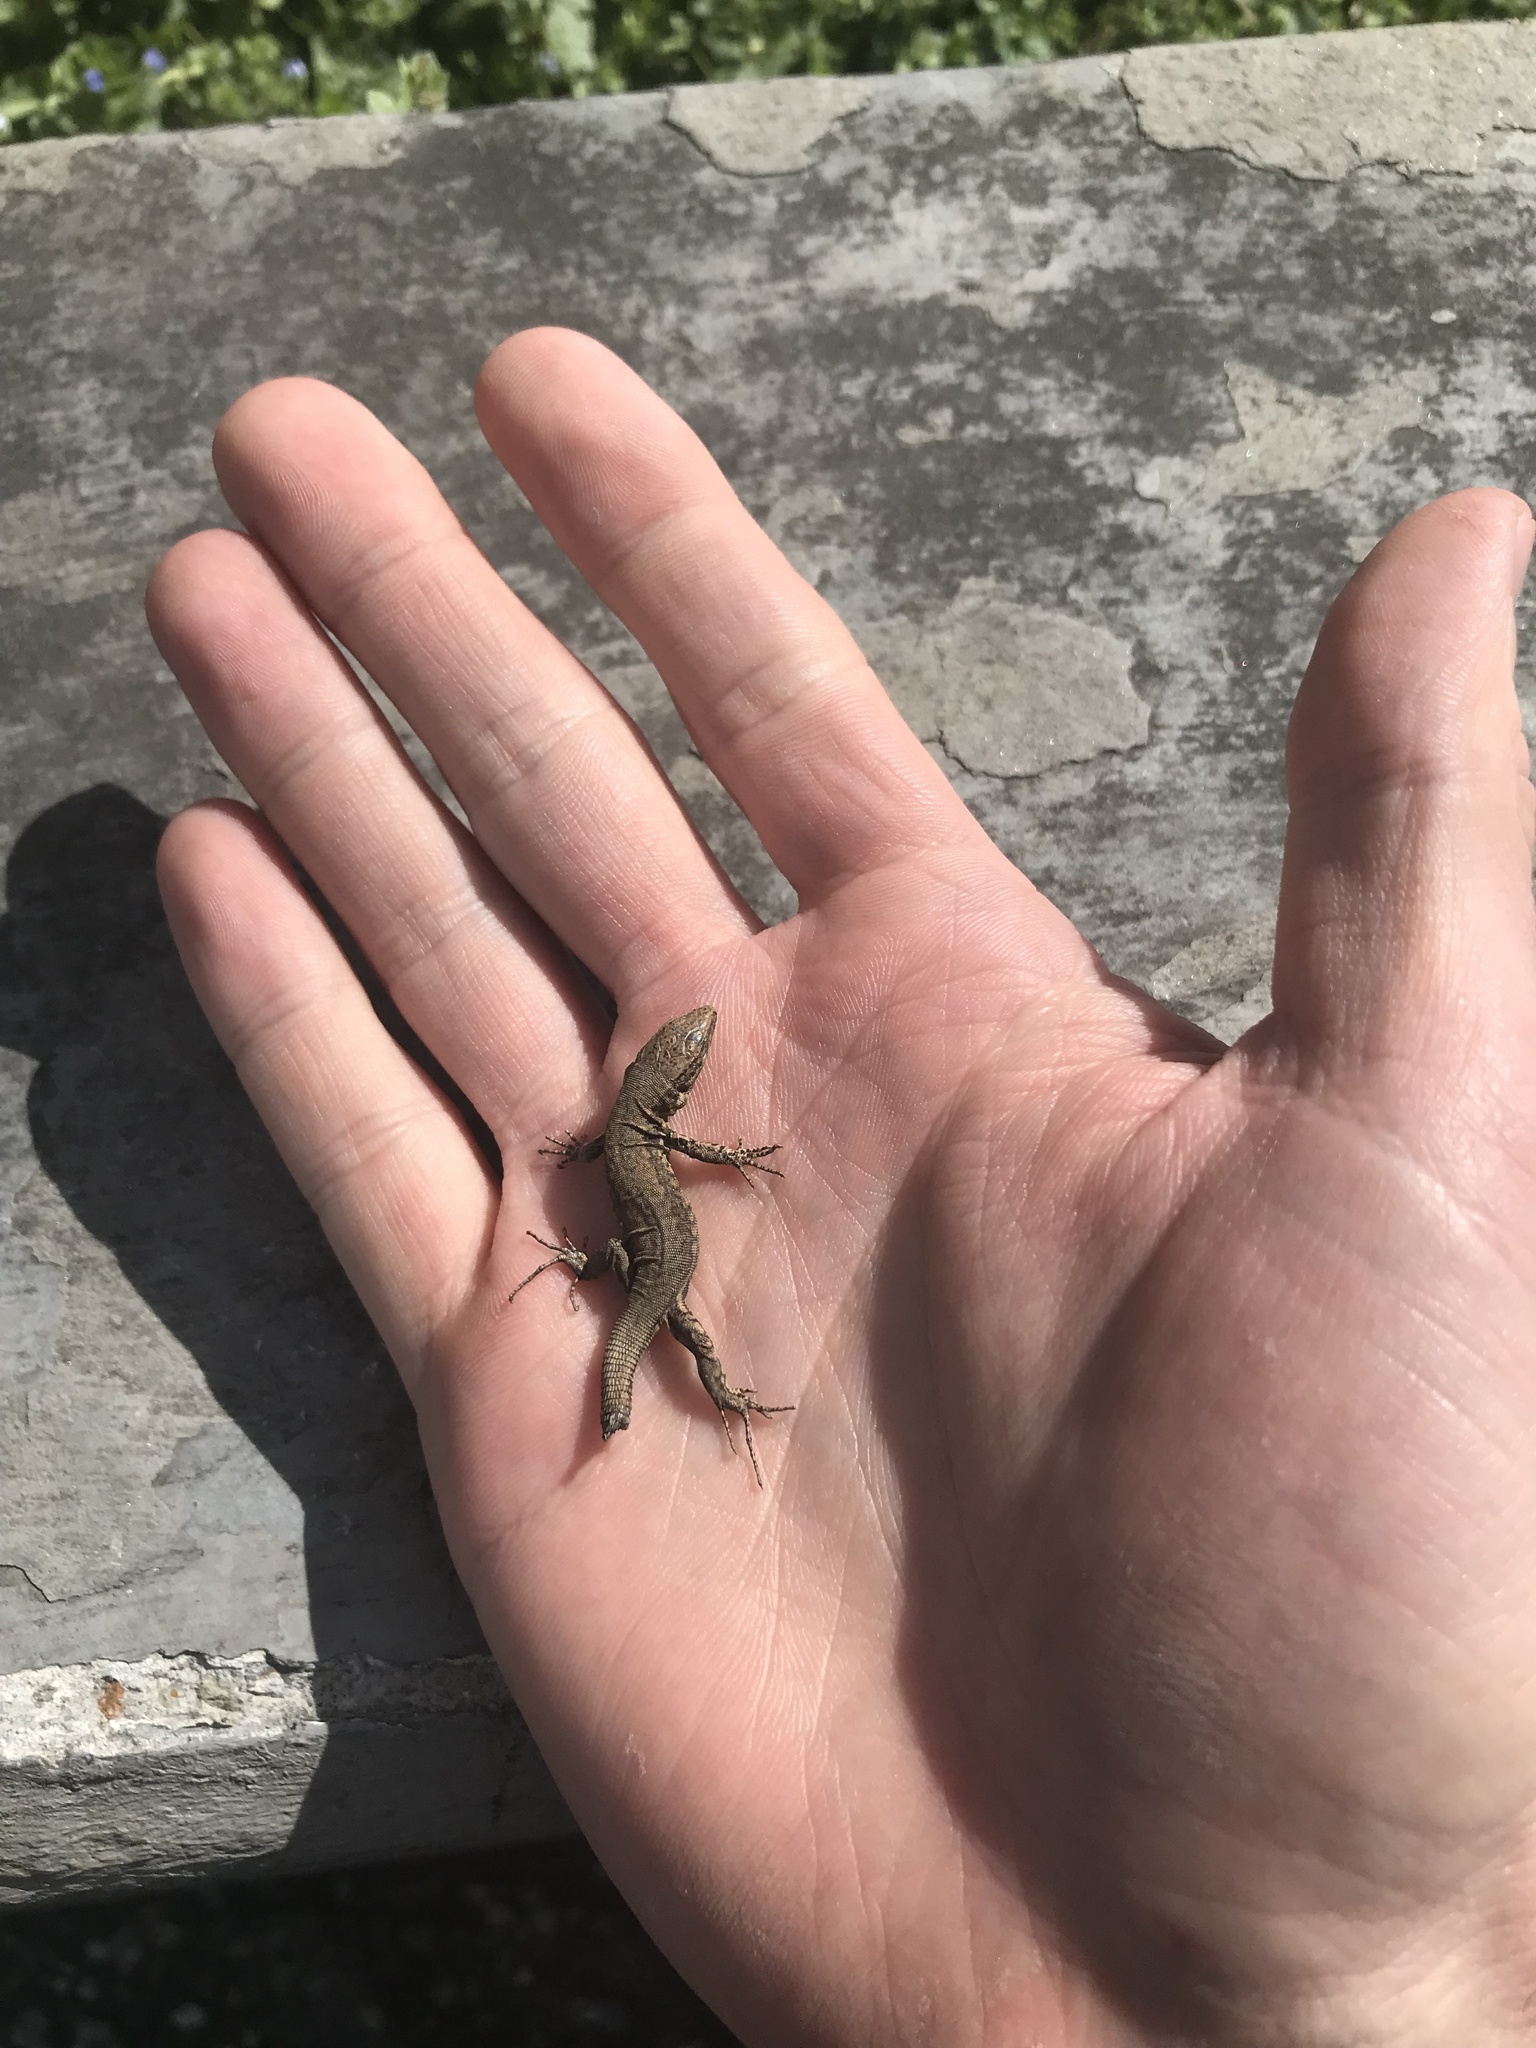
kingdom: Animalia
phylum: Chordata
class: Squamata
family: Lacertidae
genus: Podarcis
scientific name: Podarcis muralis
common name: Common wall lizard
